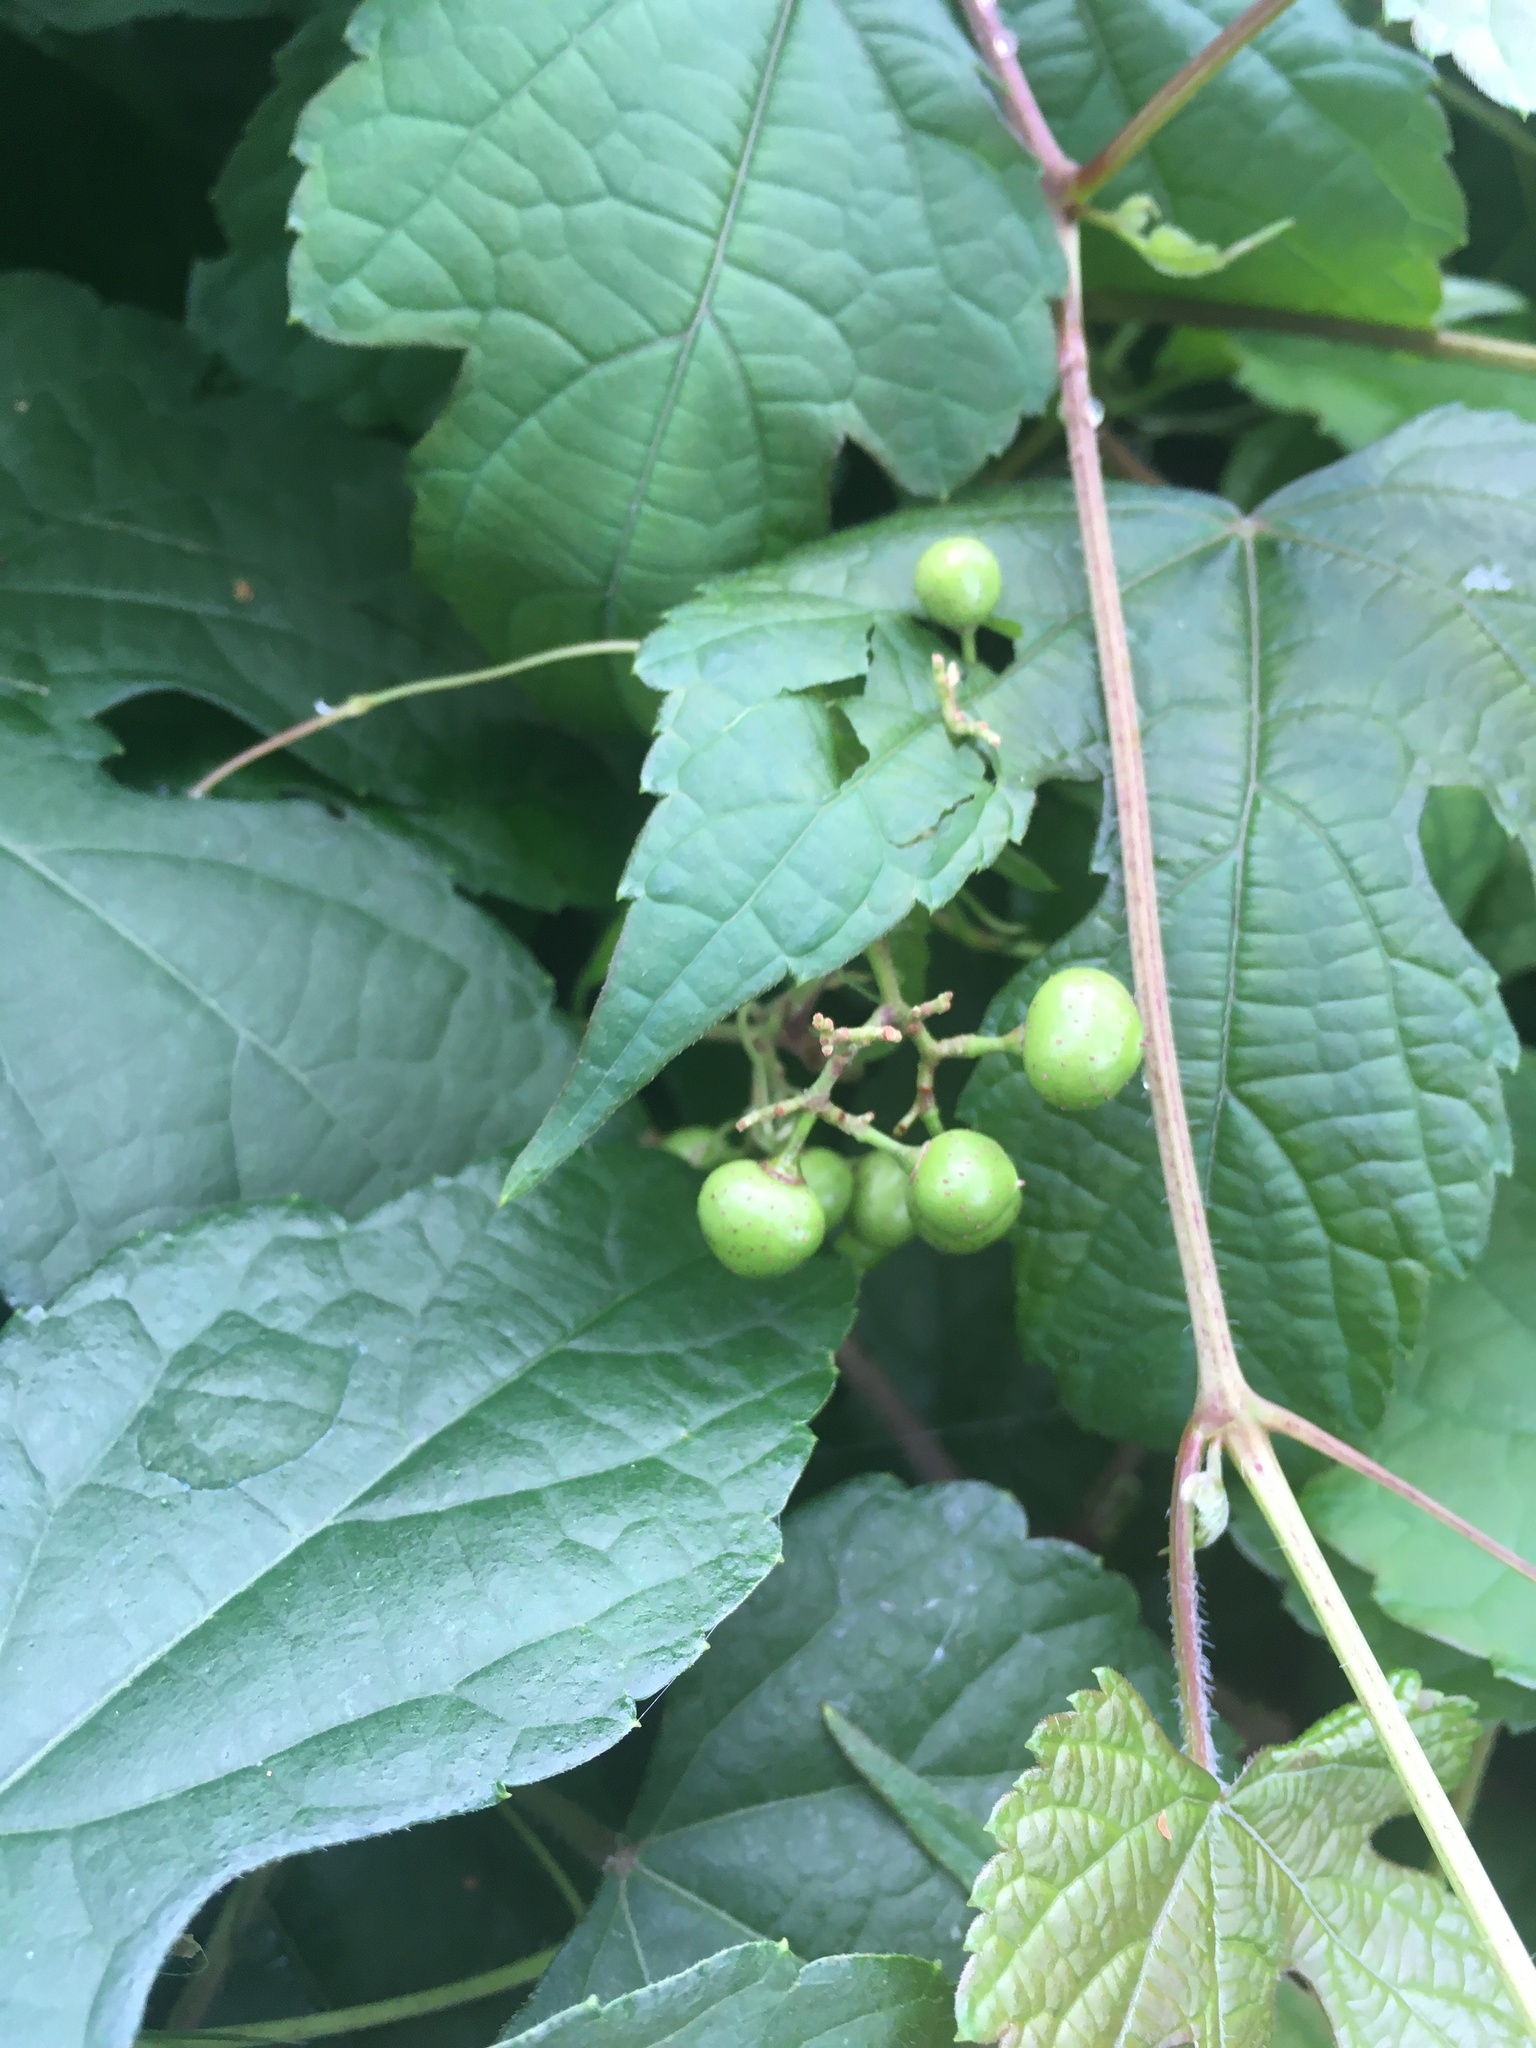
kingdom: Plantae
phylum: Tracheophyta
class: Magnoliopsida
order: Vitales
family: Vitaceae
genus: Ampelopsis
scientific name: Ampelopsis glandulosa
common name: Amur peppervine
